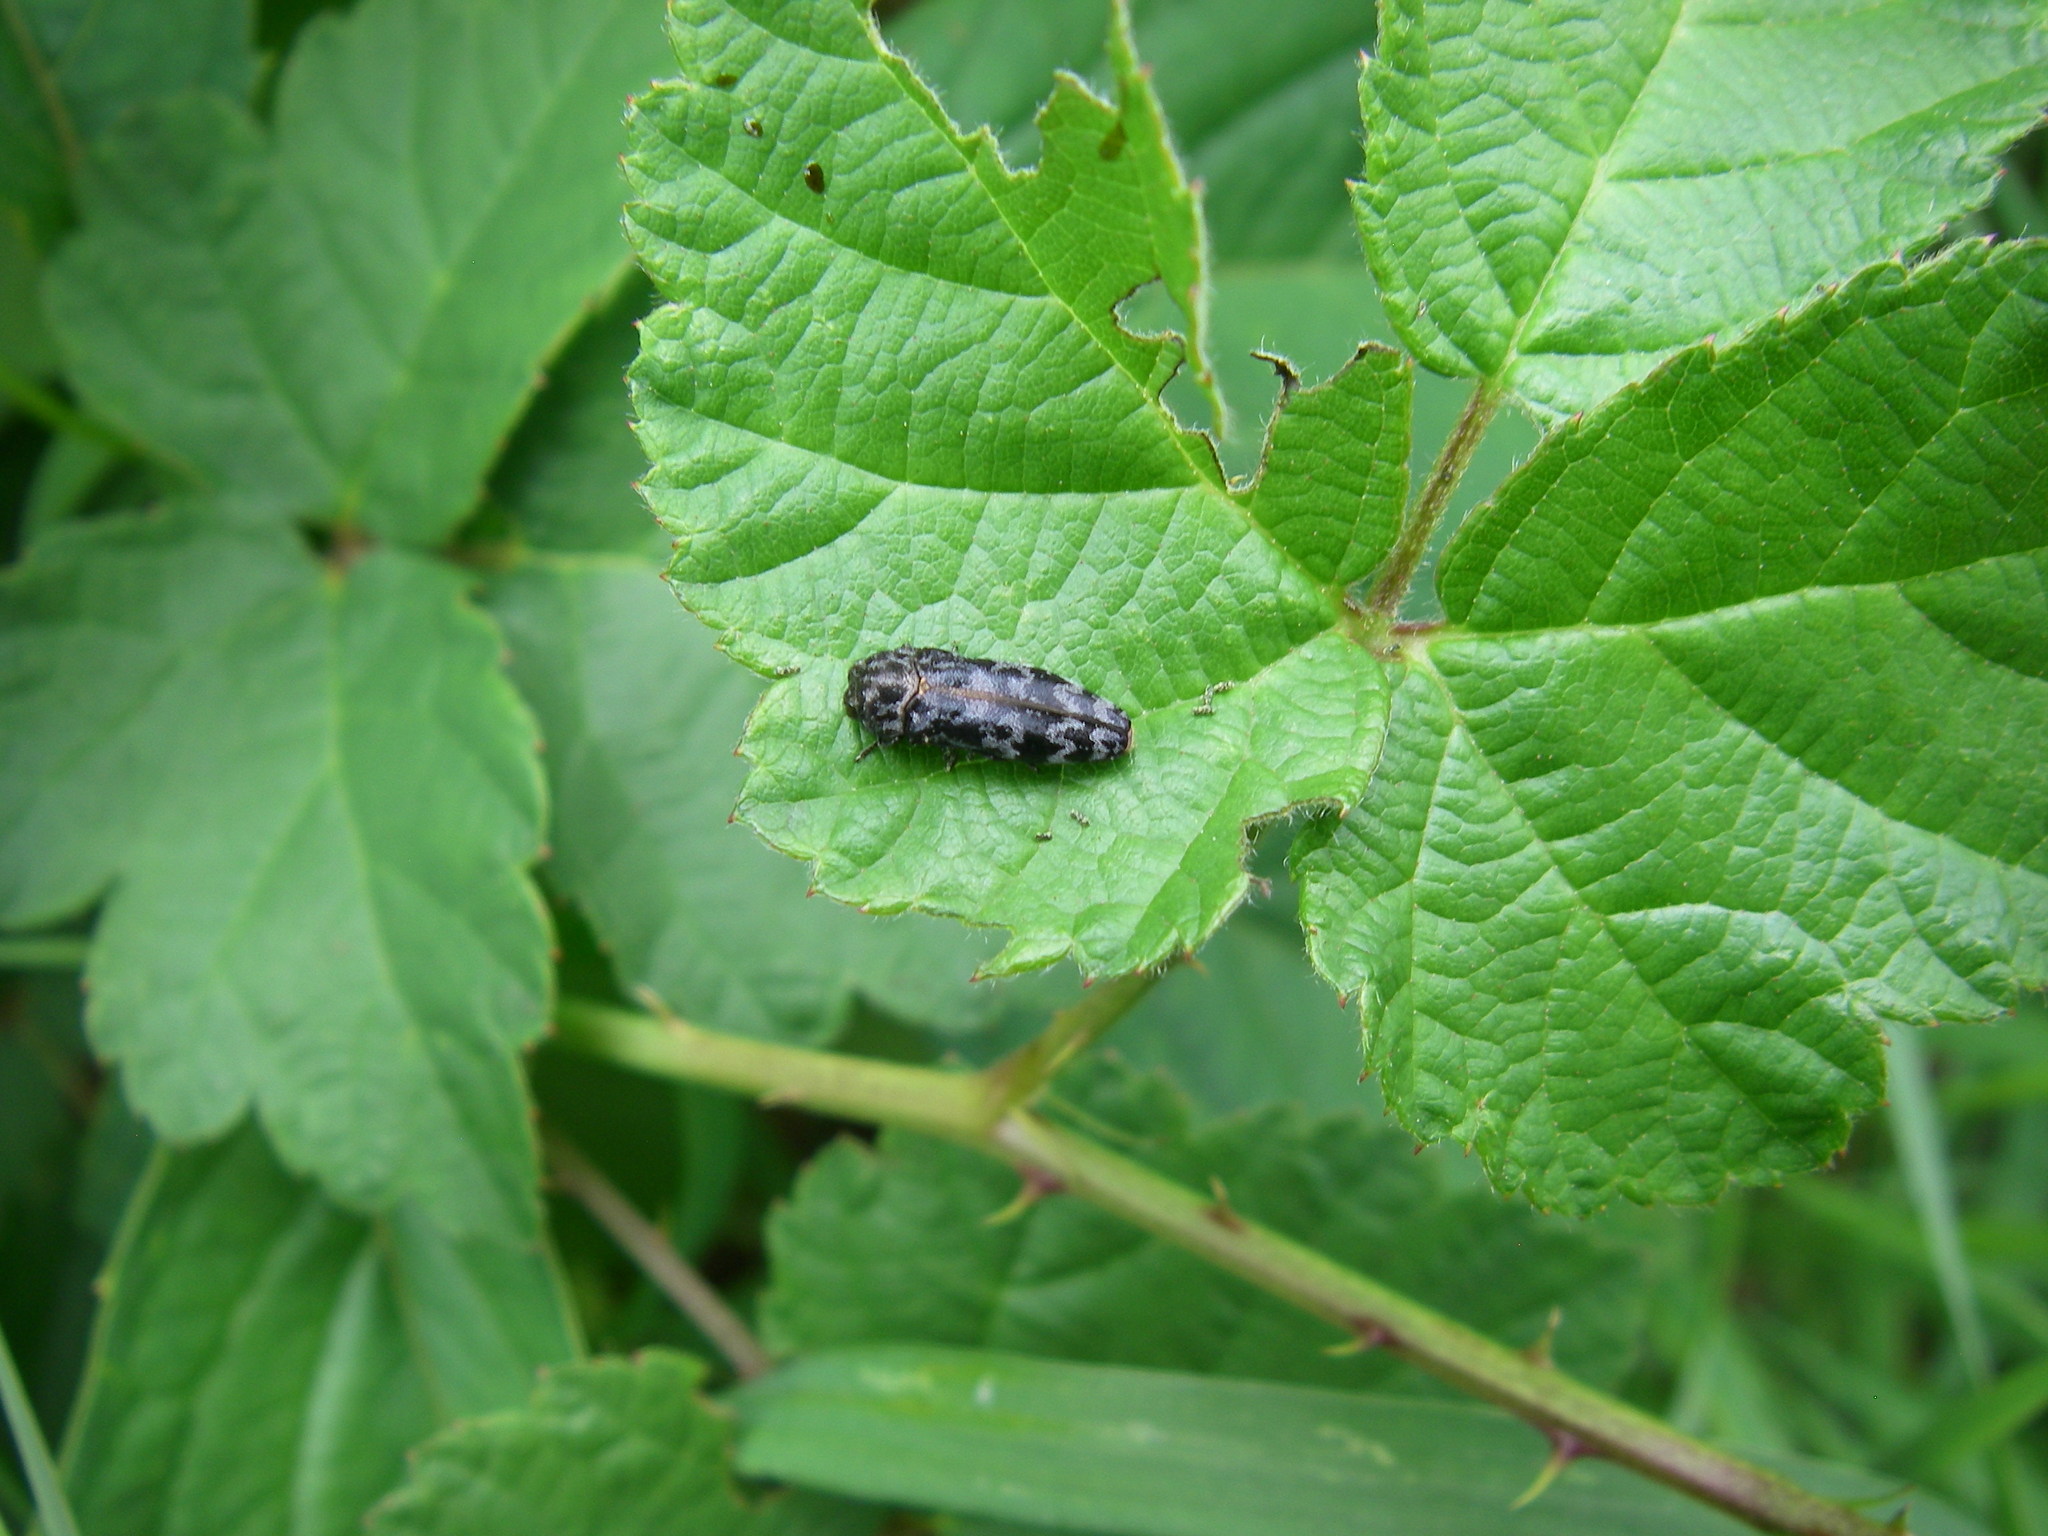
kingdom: Animalia
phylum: Arthropoda
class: Insecta
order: Coleoptera
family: Buprestidae
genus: Coraebus
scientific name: Coraebus rubi
